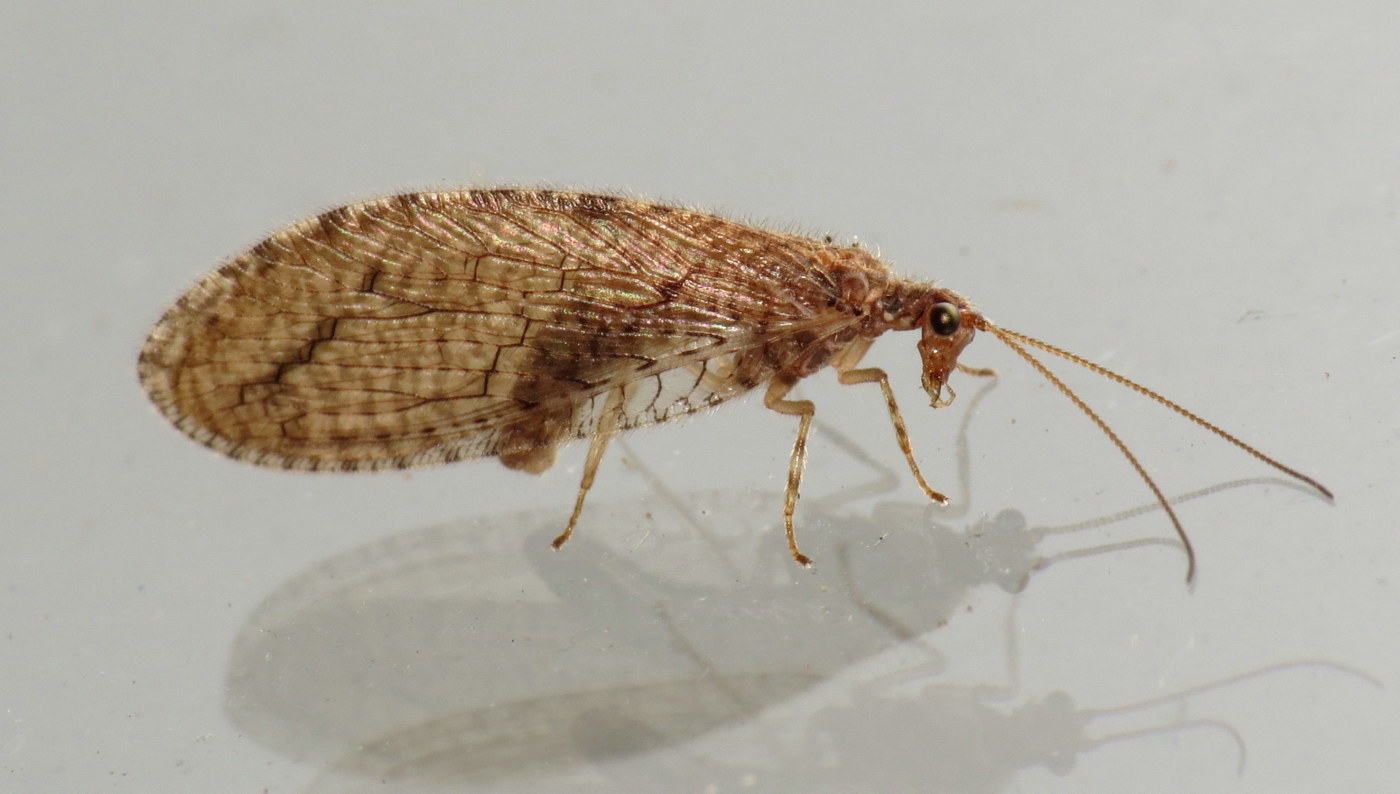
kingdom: Animalia
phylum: Arthropoda
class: Insecta
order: Neuroptera
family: Hemerobiidae
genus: Micromus
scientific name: Micromus posticus
